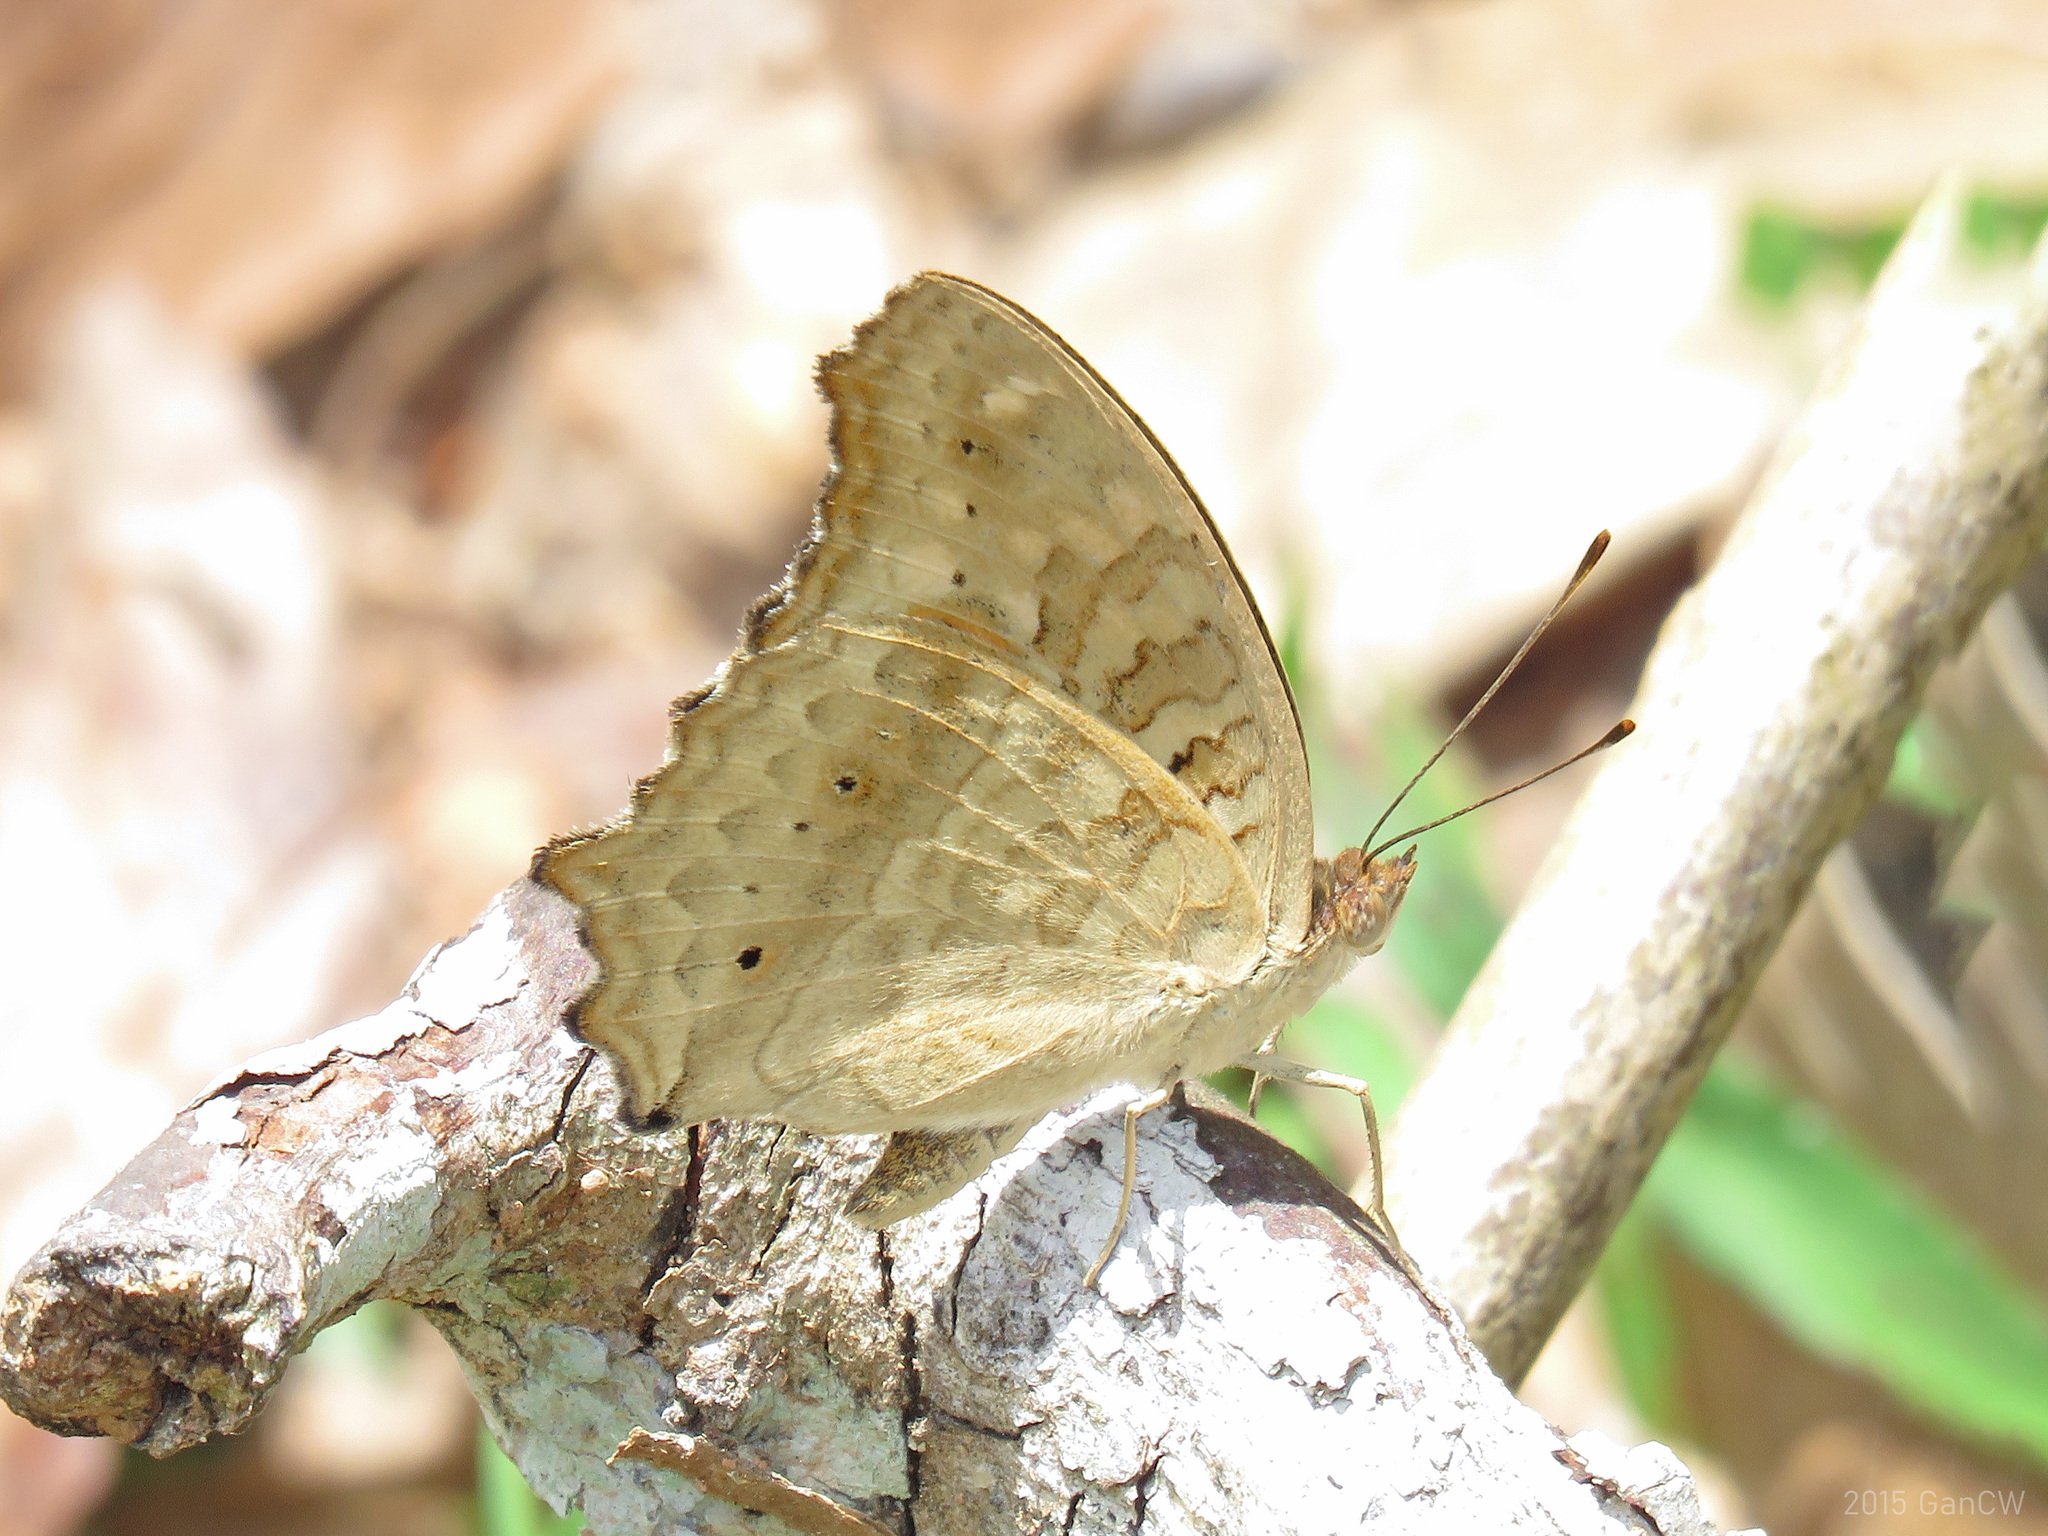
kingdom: Animalia
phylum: Arthropoda
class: Insecta
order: Lepidoptera
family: Nymphalidae
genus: Junonia
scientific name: Junonia lemonias
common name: Lemon pansy
